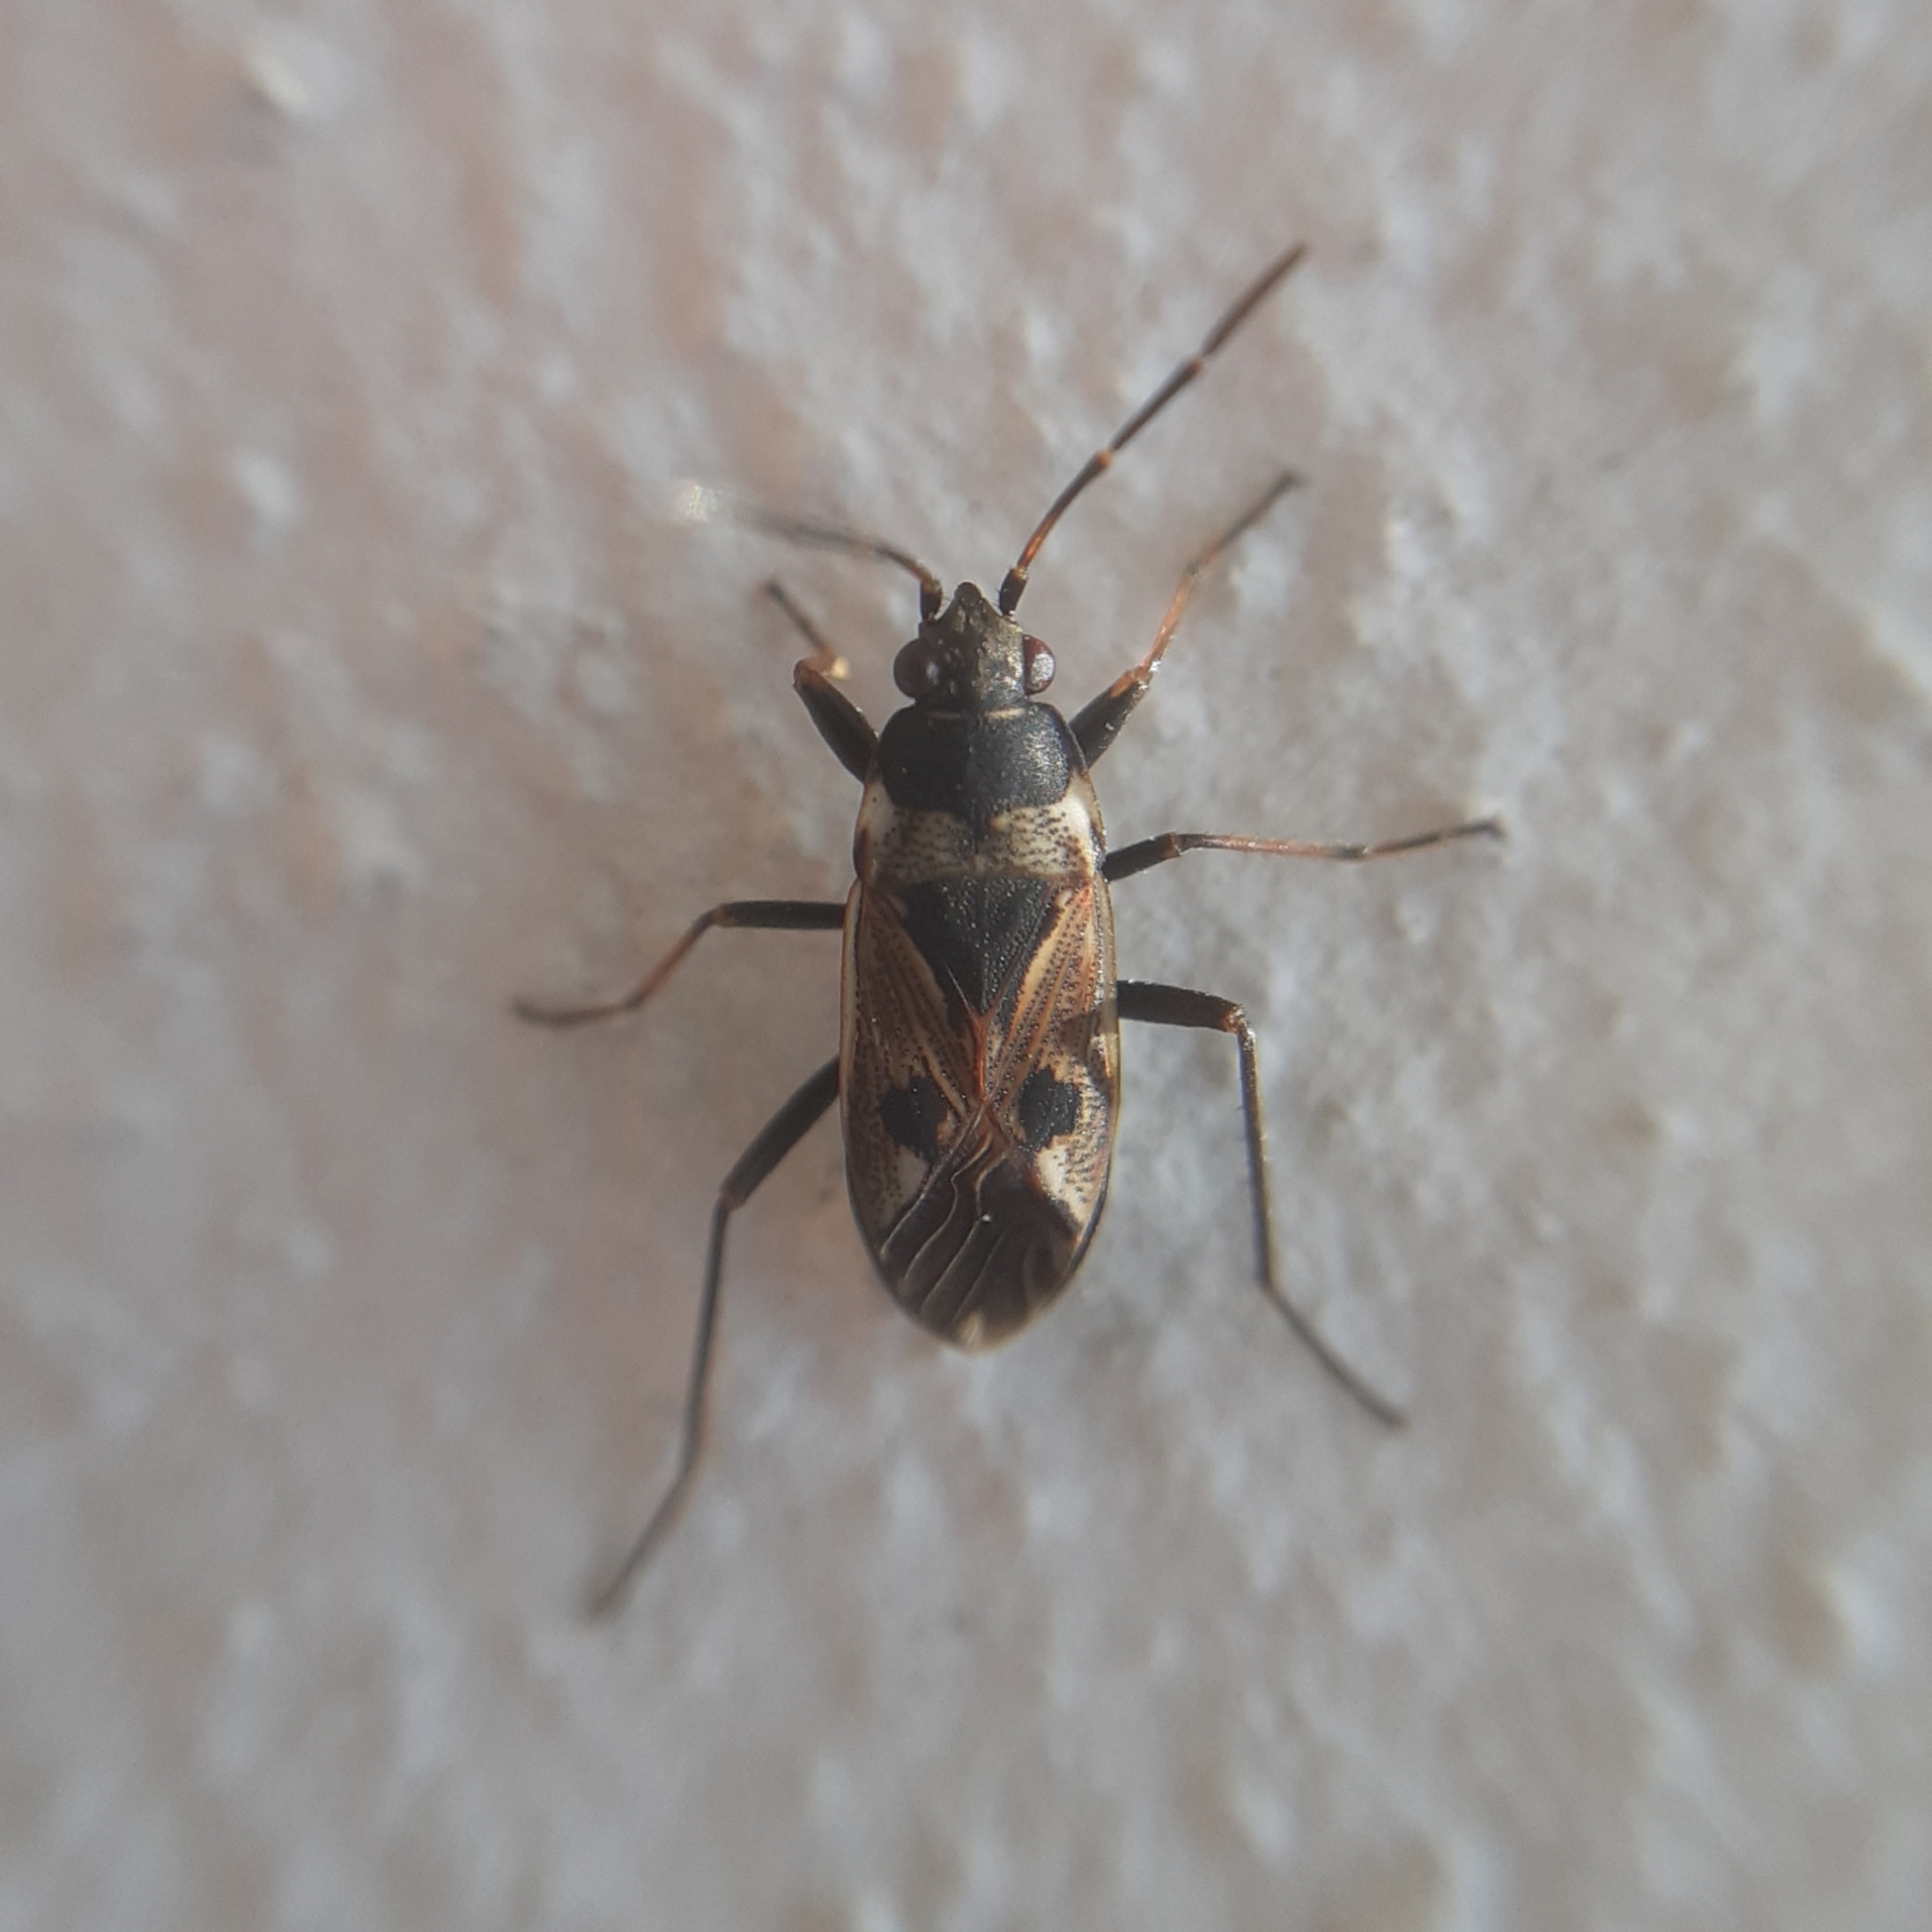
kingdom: Animalia
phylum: Arthropoda
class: Insecta
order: Hemiptera
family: Rhyparochromidae
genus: Rhyparochromus
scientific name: Rhyparochromus vulgaris
